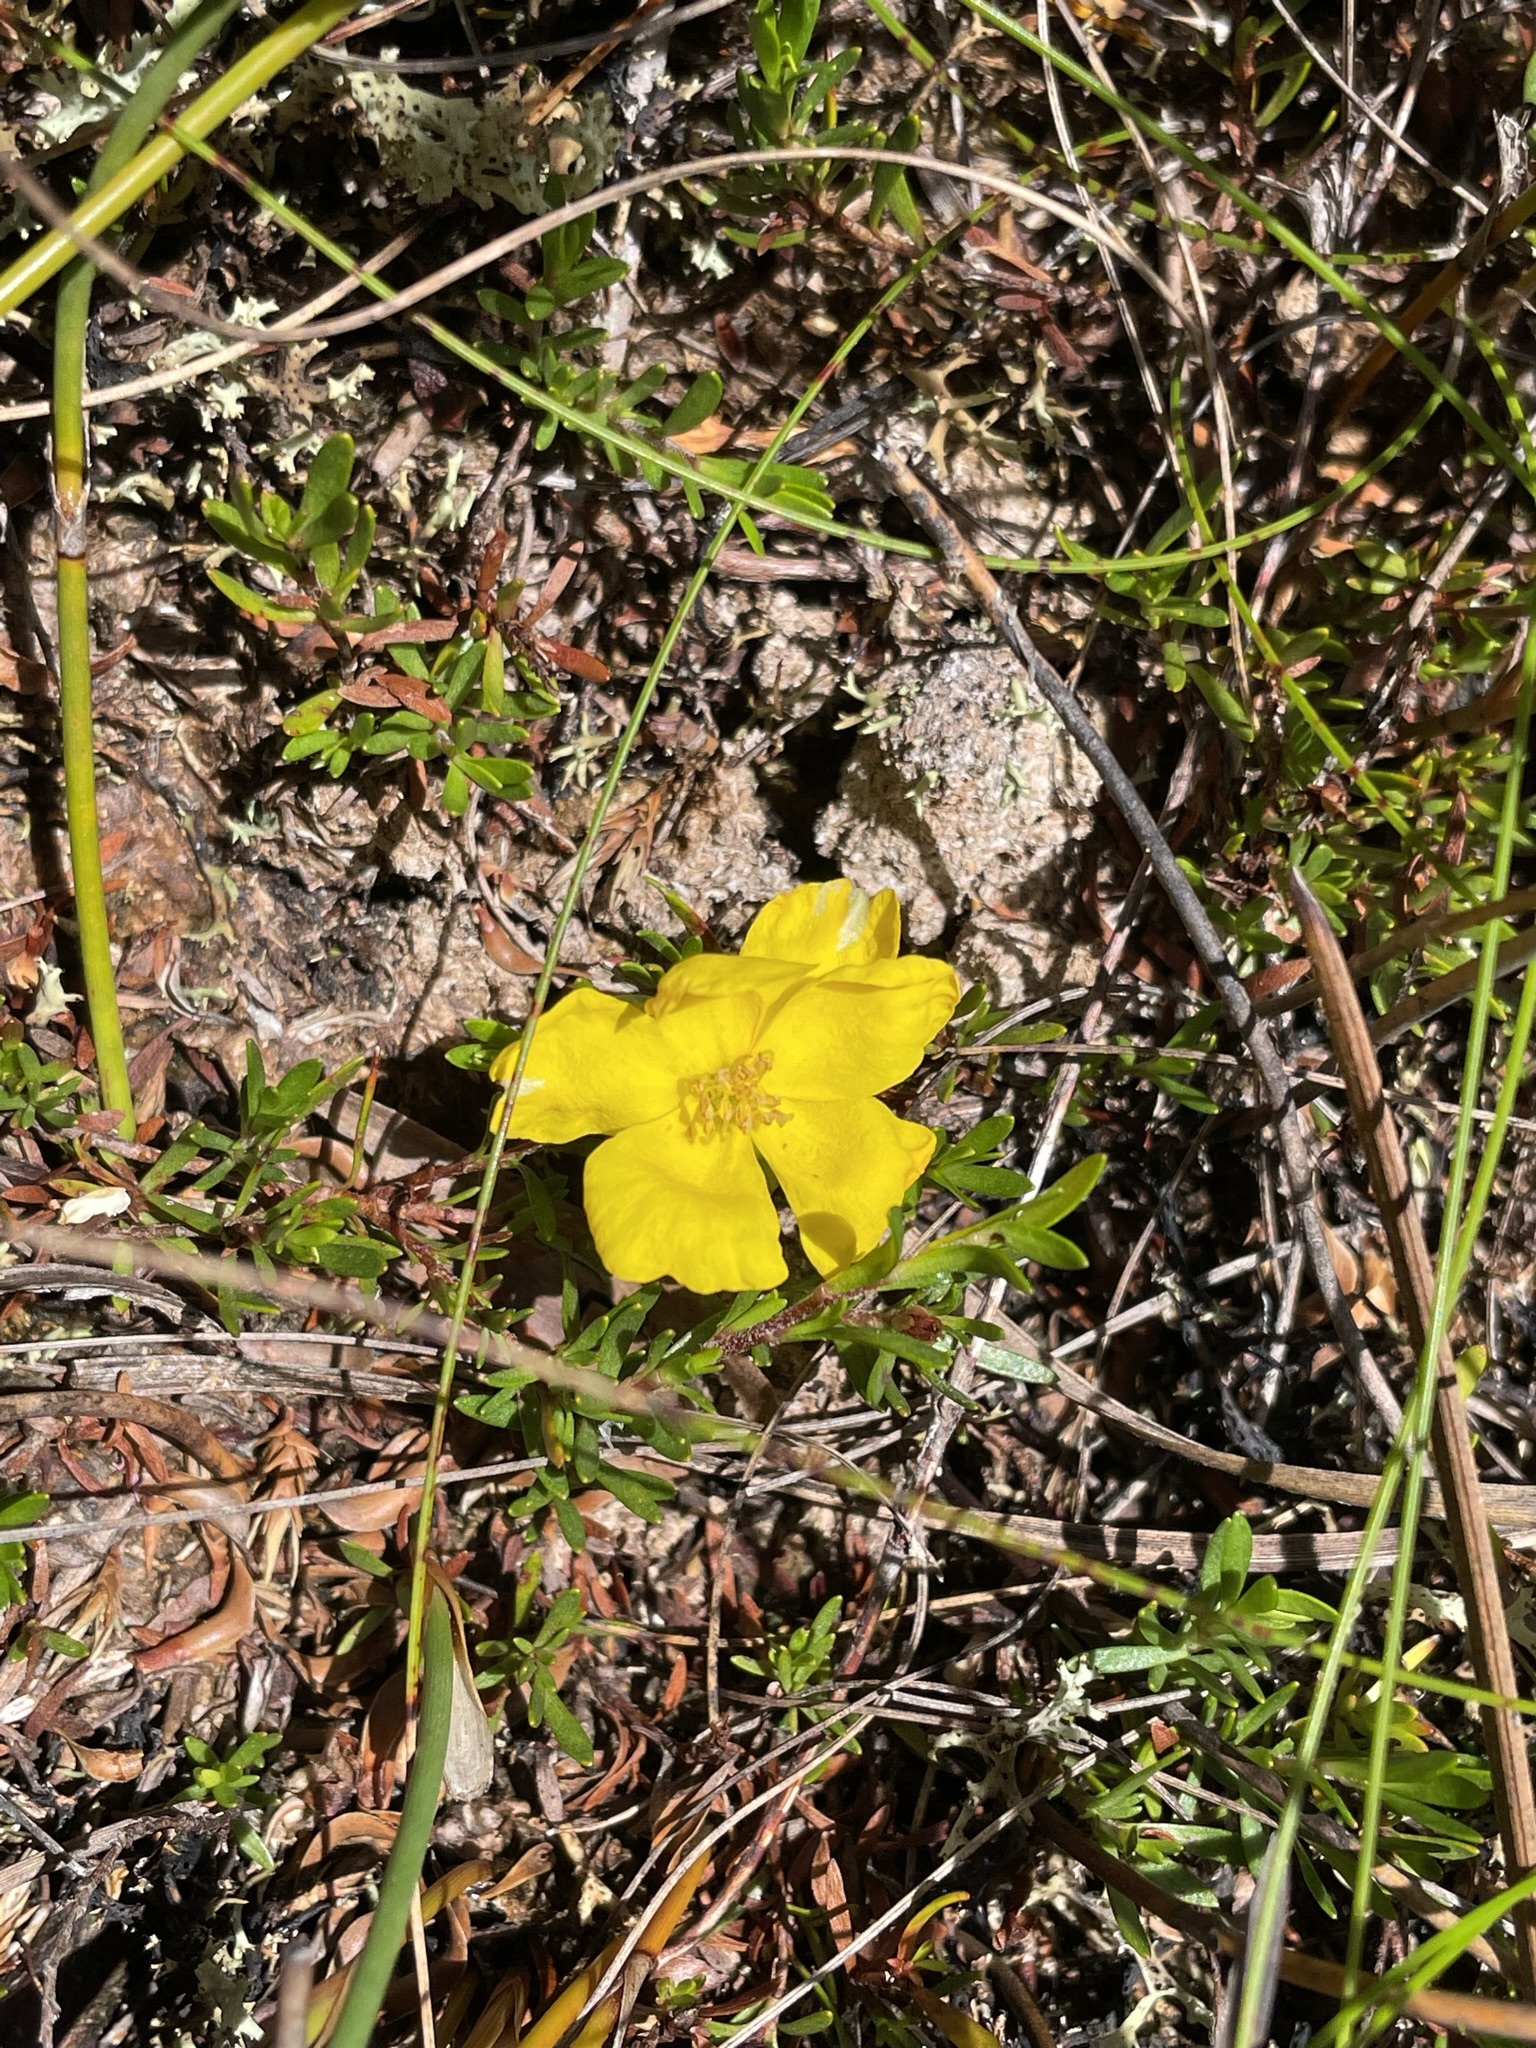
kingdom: Plantae
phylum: Tracheophyta
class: Magnoliopsida
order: Dilleniales
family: Dilleniaceae
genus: Hibbertia
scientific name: Hibbertia procumbens
